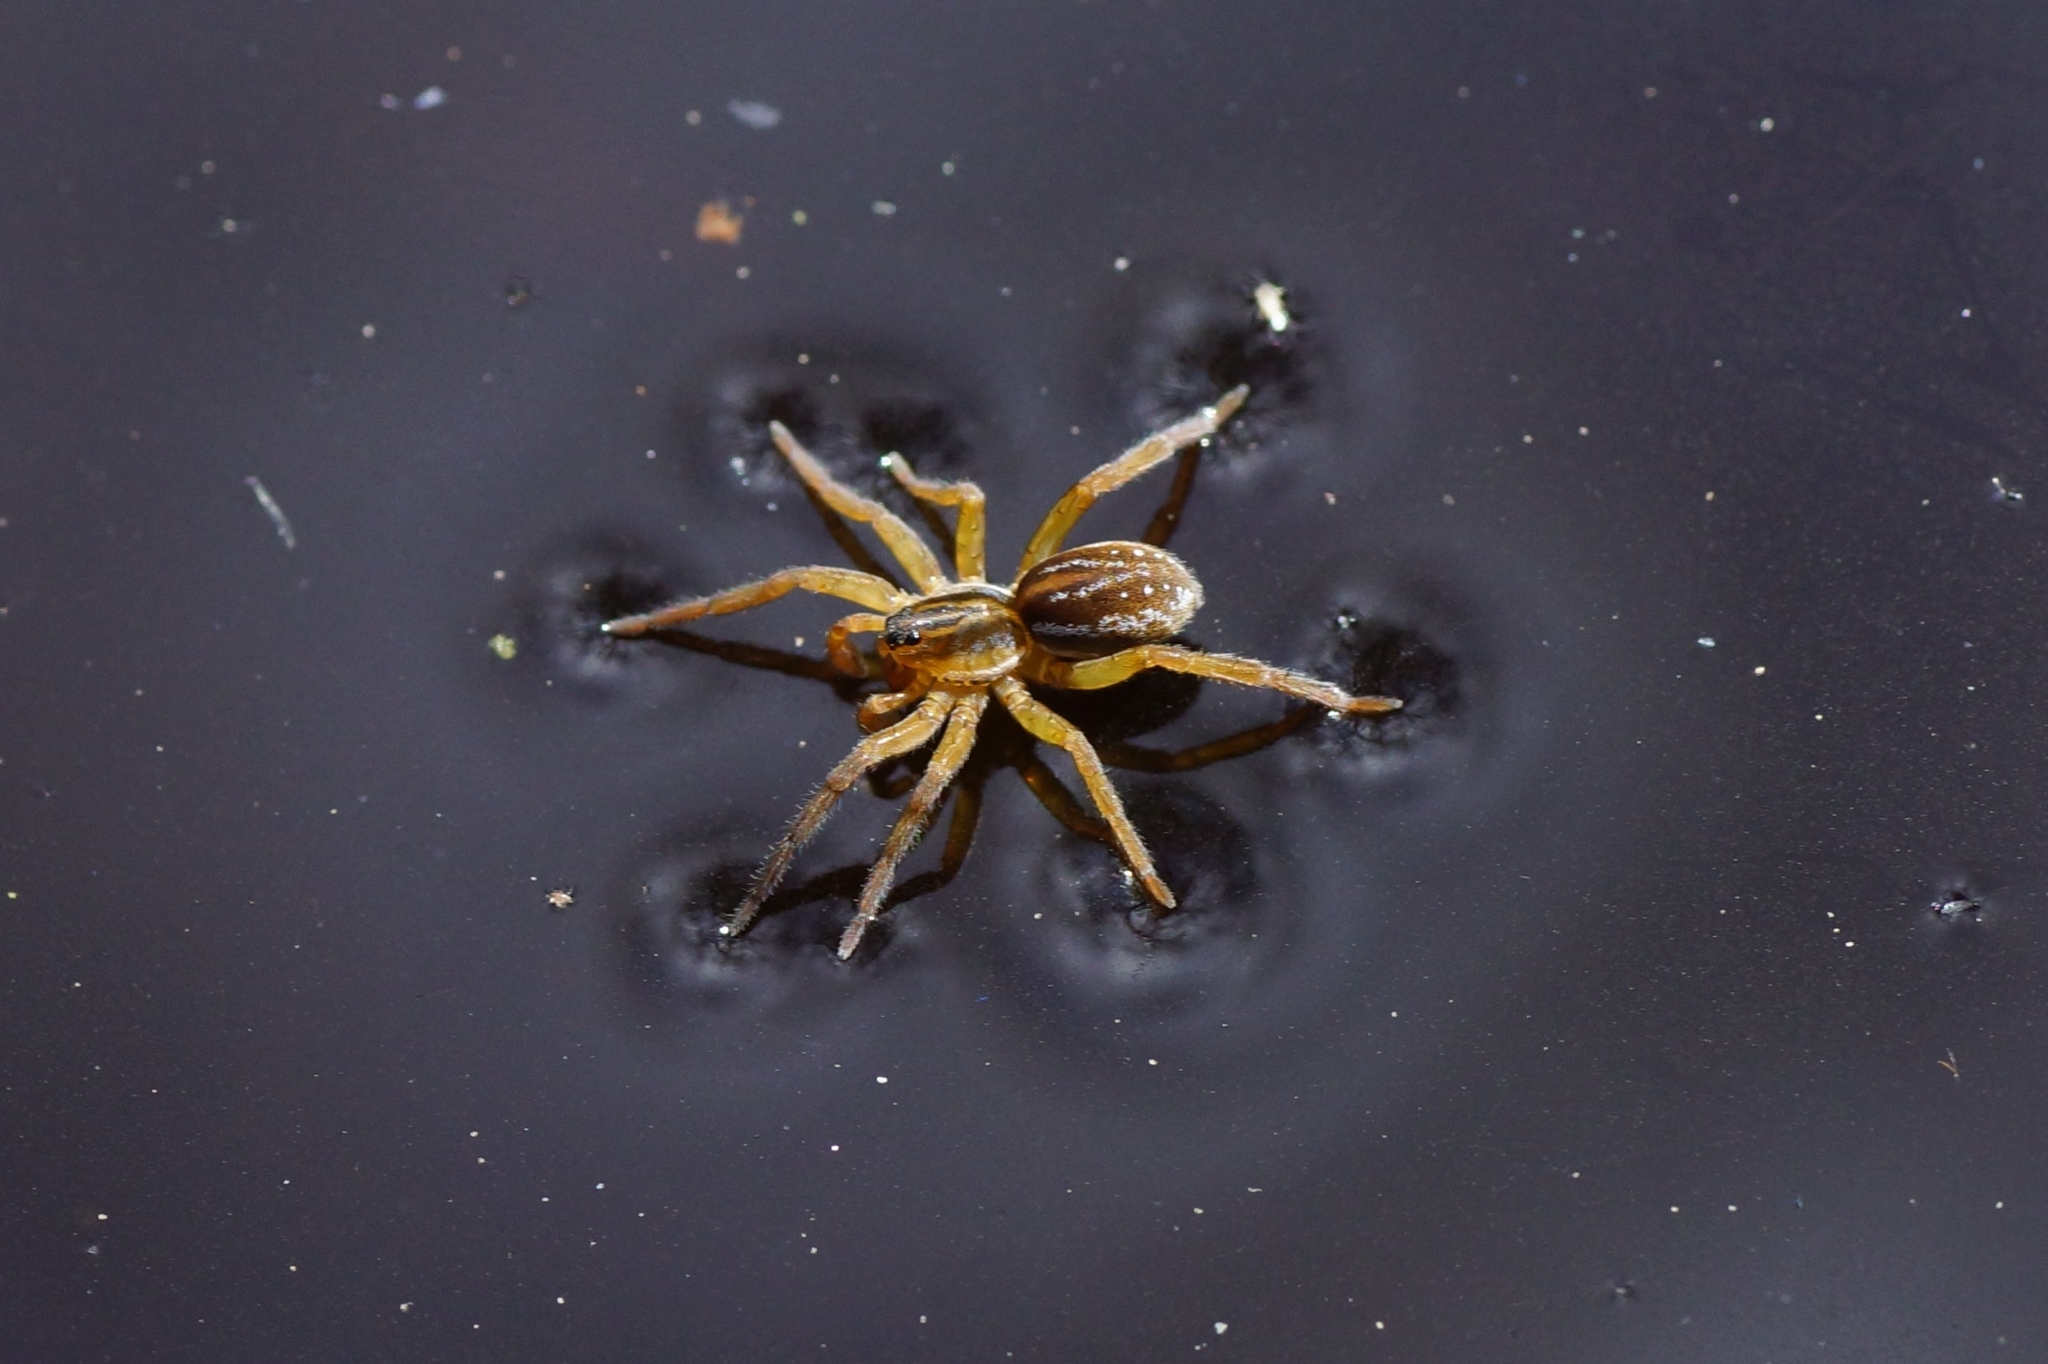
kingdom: Animalia
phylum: Arthropoda
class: Arachnida
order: Araneae
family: Lycosidae
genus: Pirata
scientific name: Pirata piraticus
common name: Pirate otter spider
